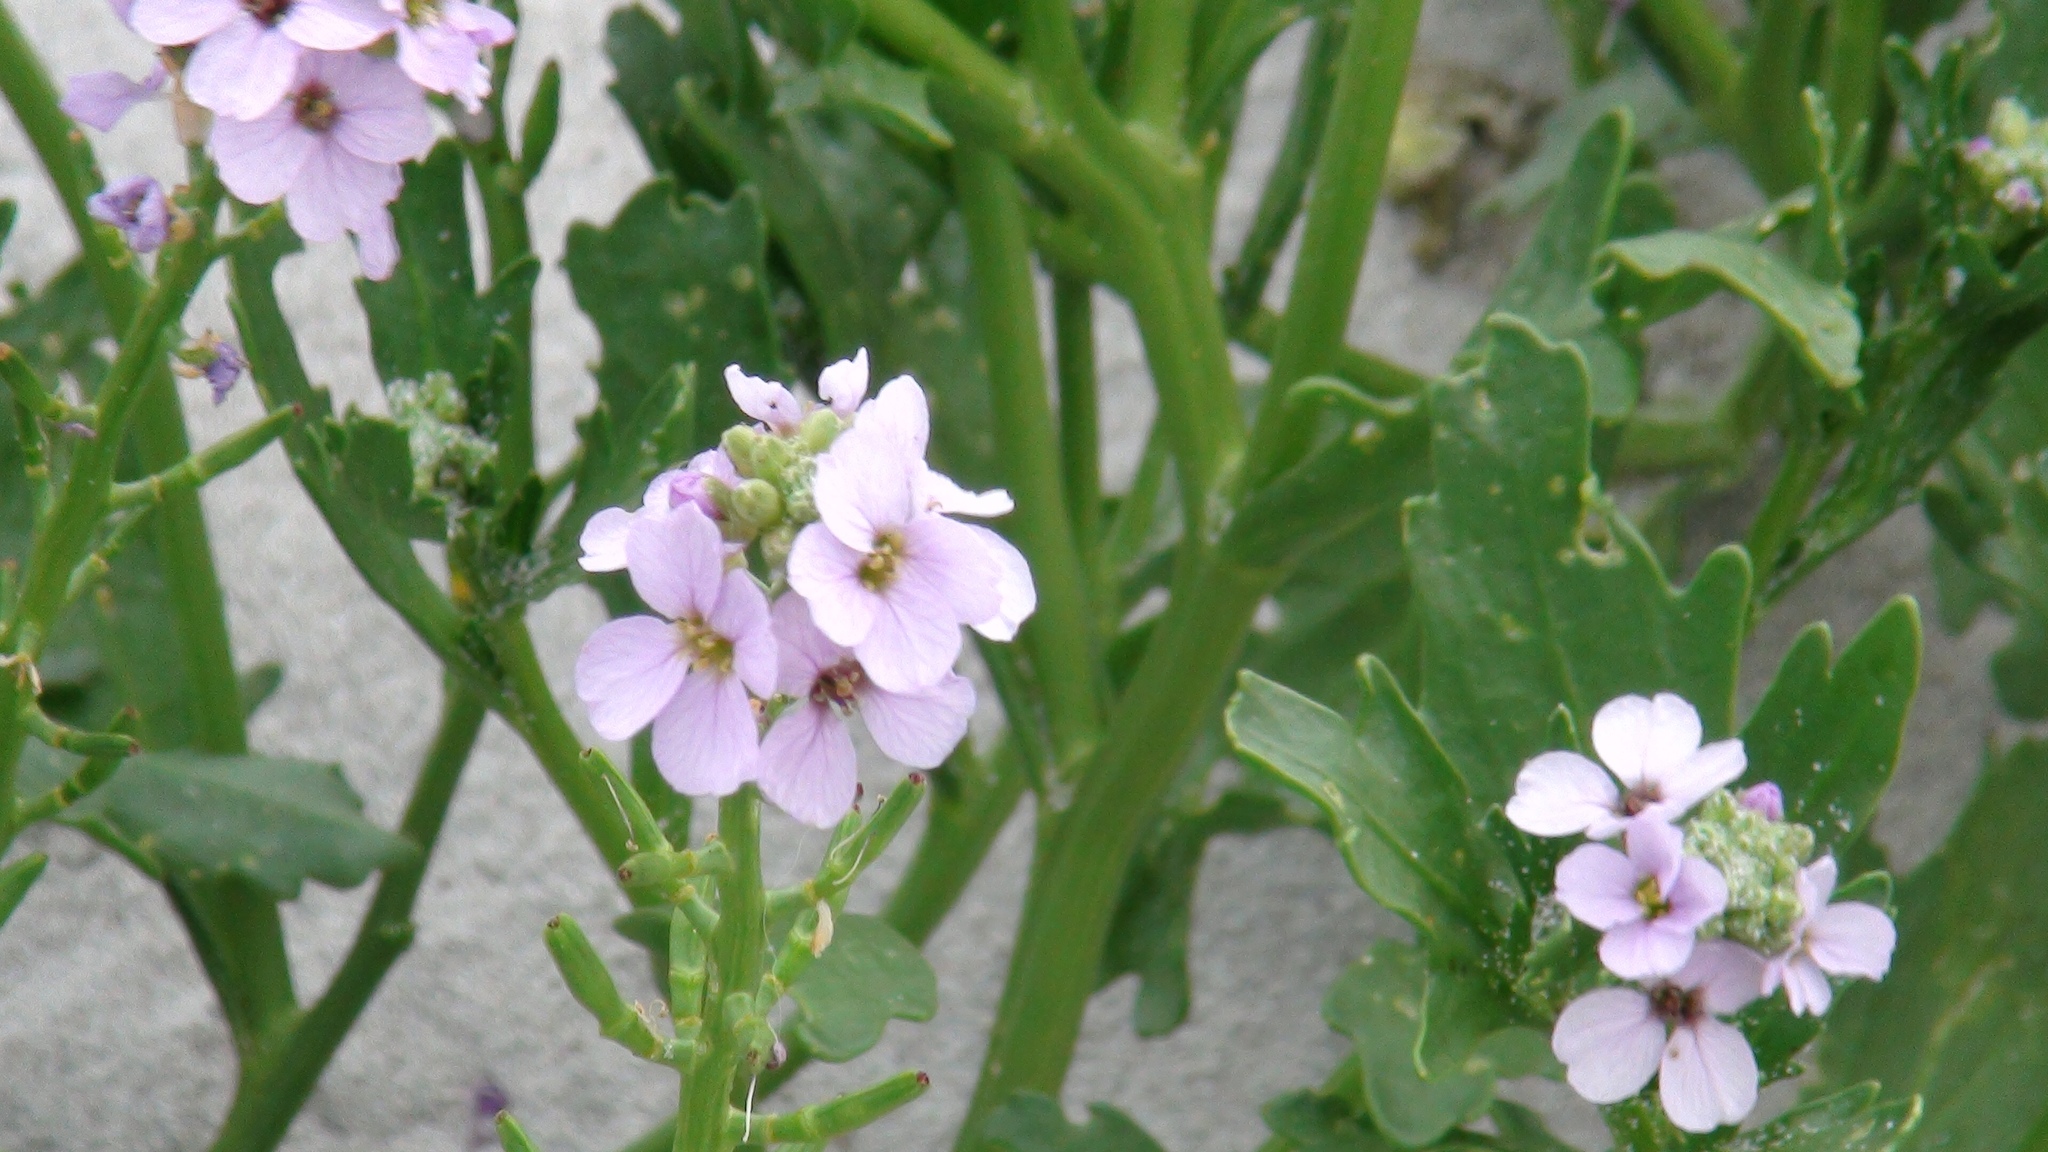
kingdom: Plantae
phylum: Tracheophyta
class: Magnoliopsida
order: Brassicales
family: Brassicaceae
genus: Cakile
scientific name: Cakile maritima
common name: Sea rocket
